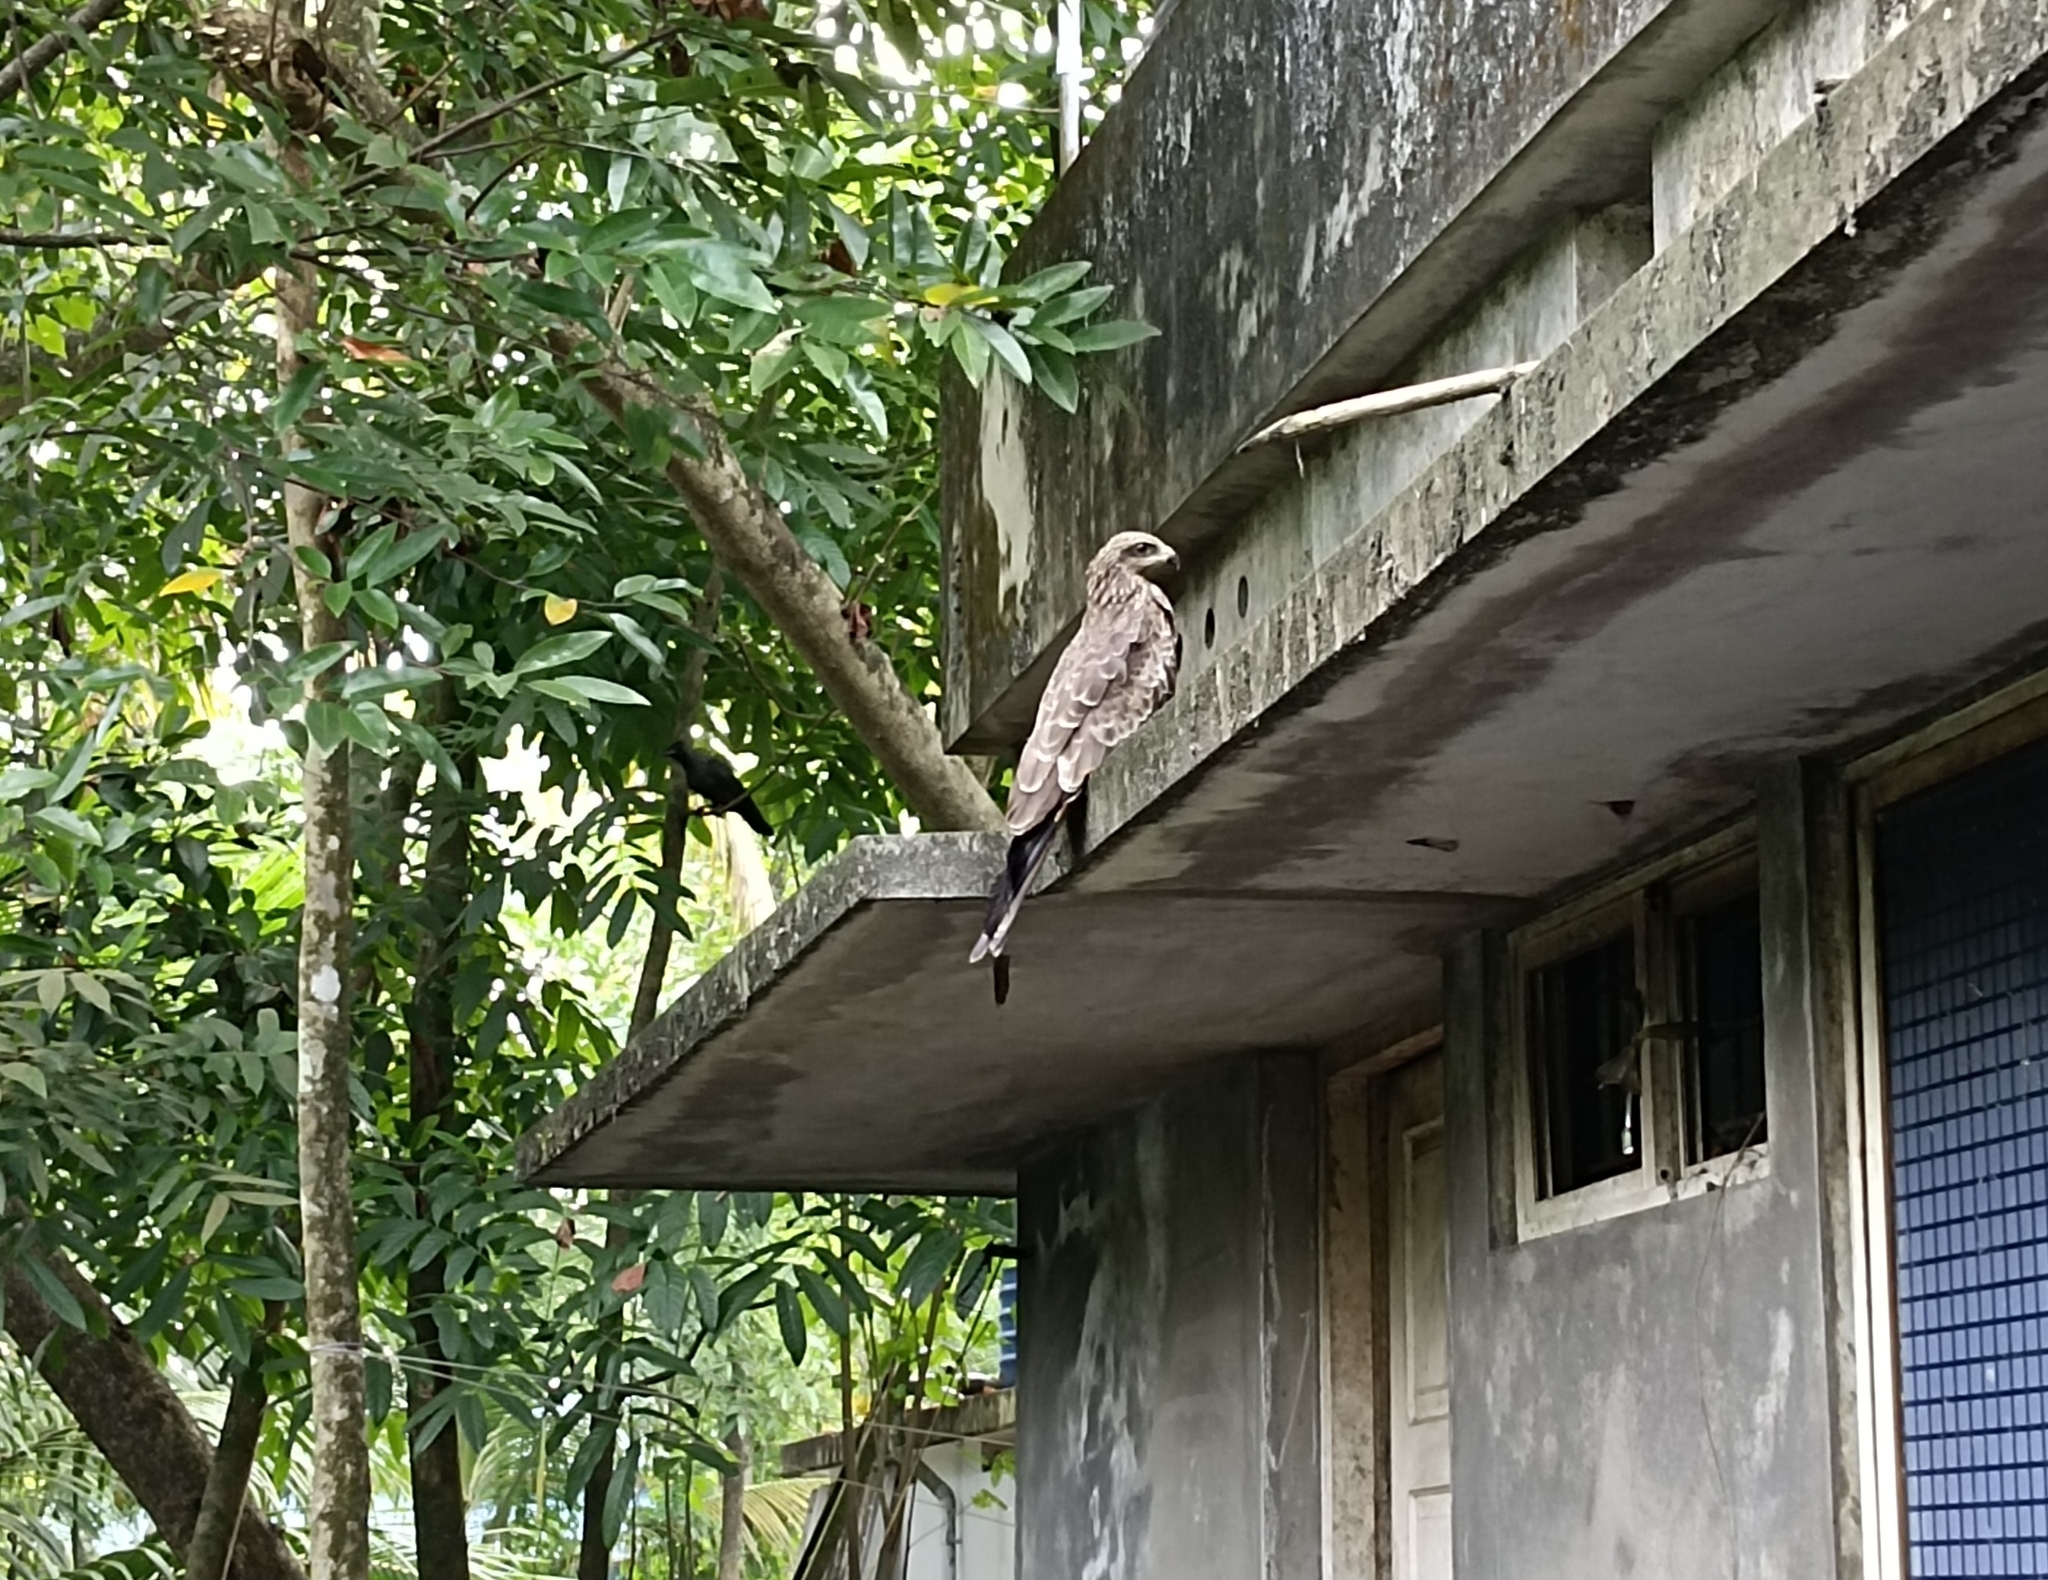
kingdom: Animalia
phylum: Chordata
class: Aves
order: Accipitriformes
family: Accipitridae
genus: Milvus
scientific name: Milvus migrans
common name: Black kite
